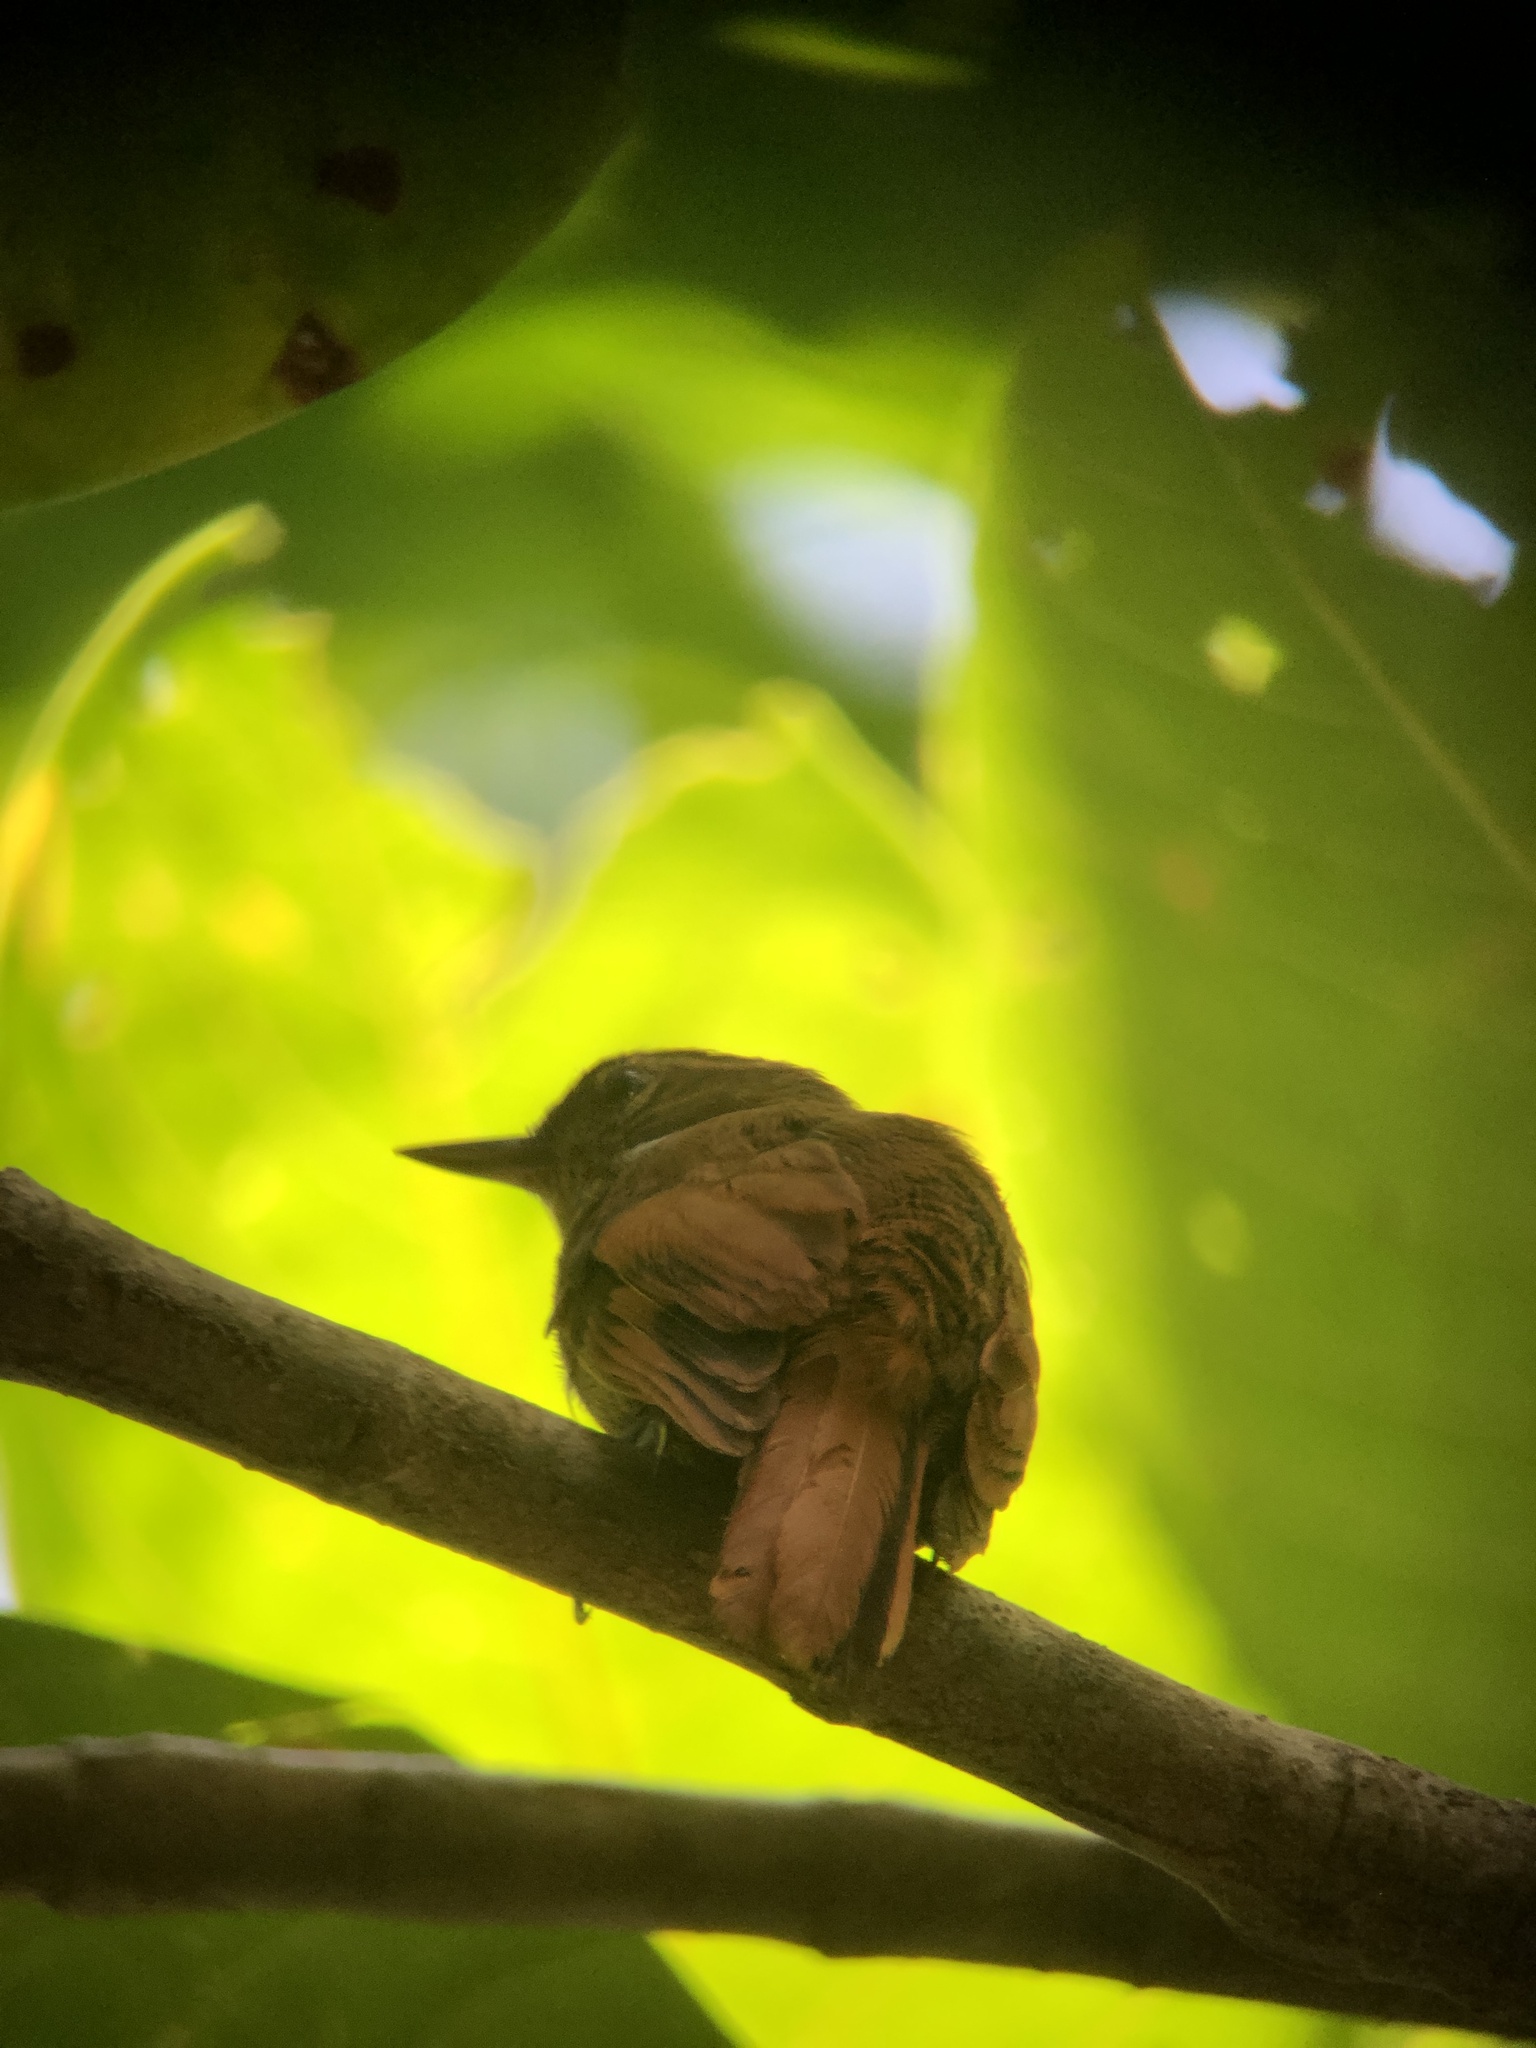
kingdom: Animalia
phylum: Chordata
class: Aves
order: Passeriformes
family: Furnariidae
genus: Xenops
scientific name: Xenops minutus
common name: Plain xenops
